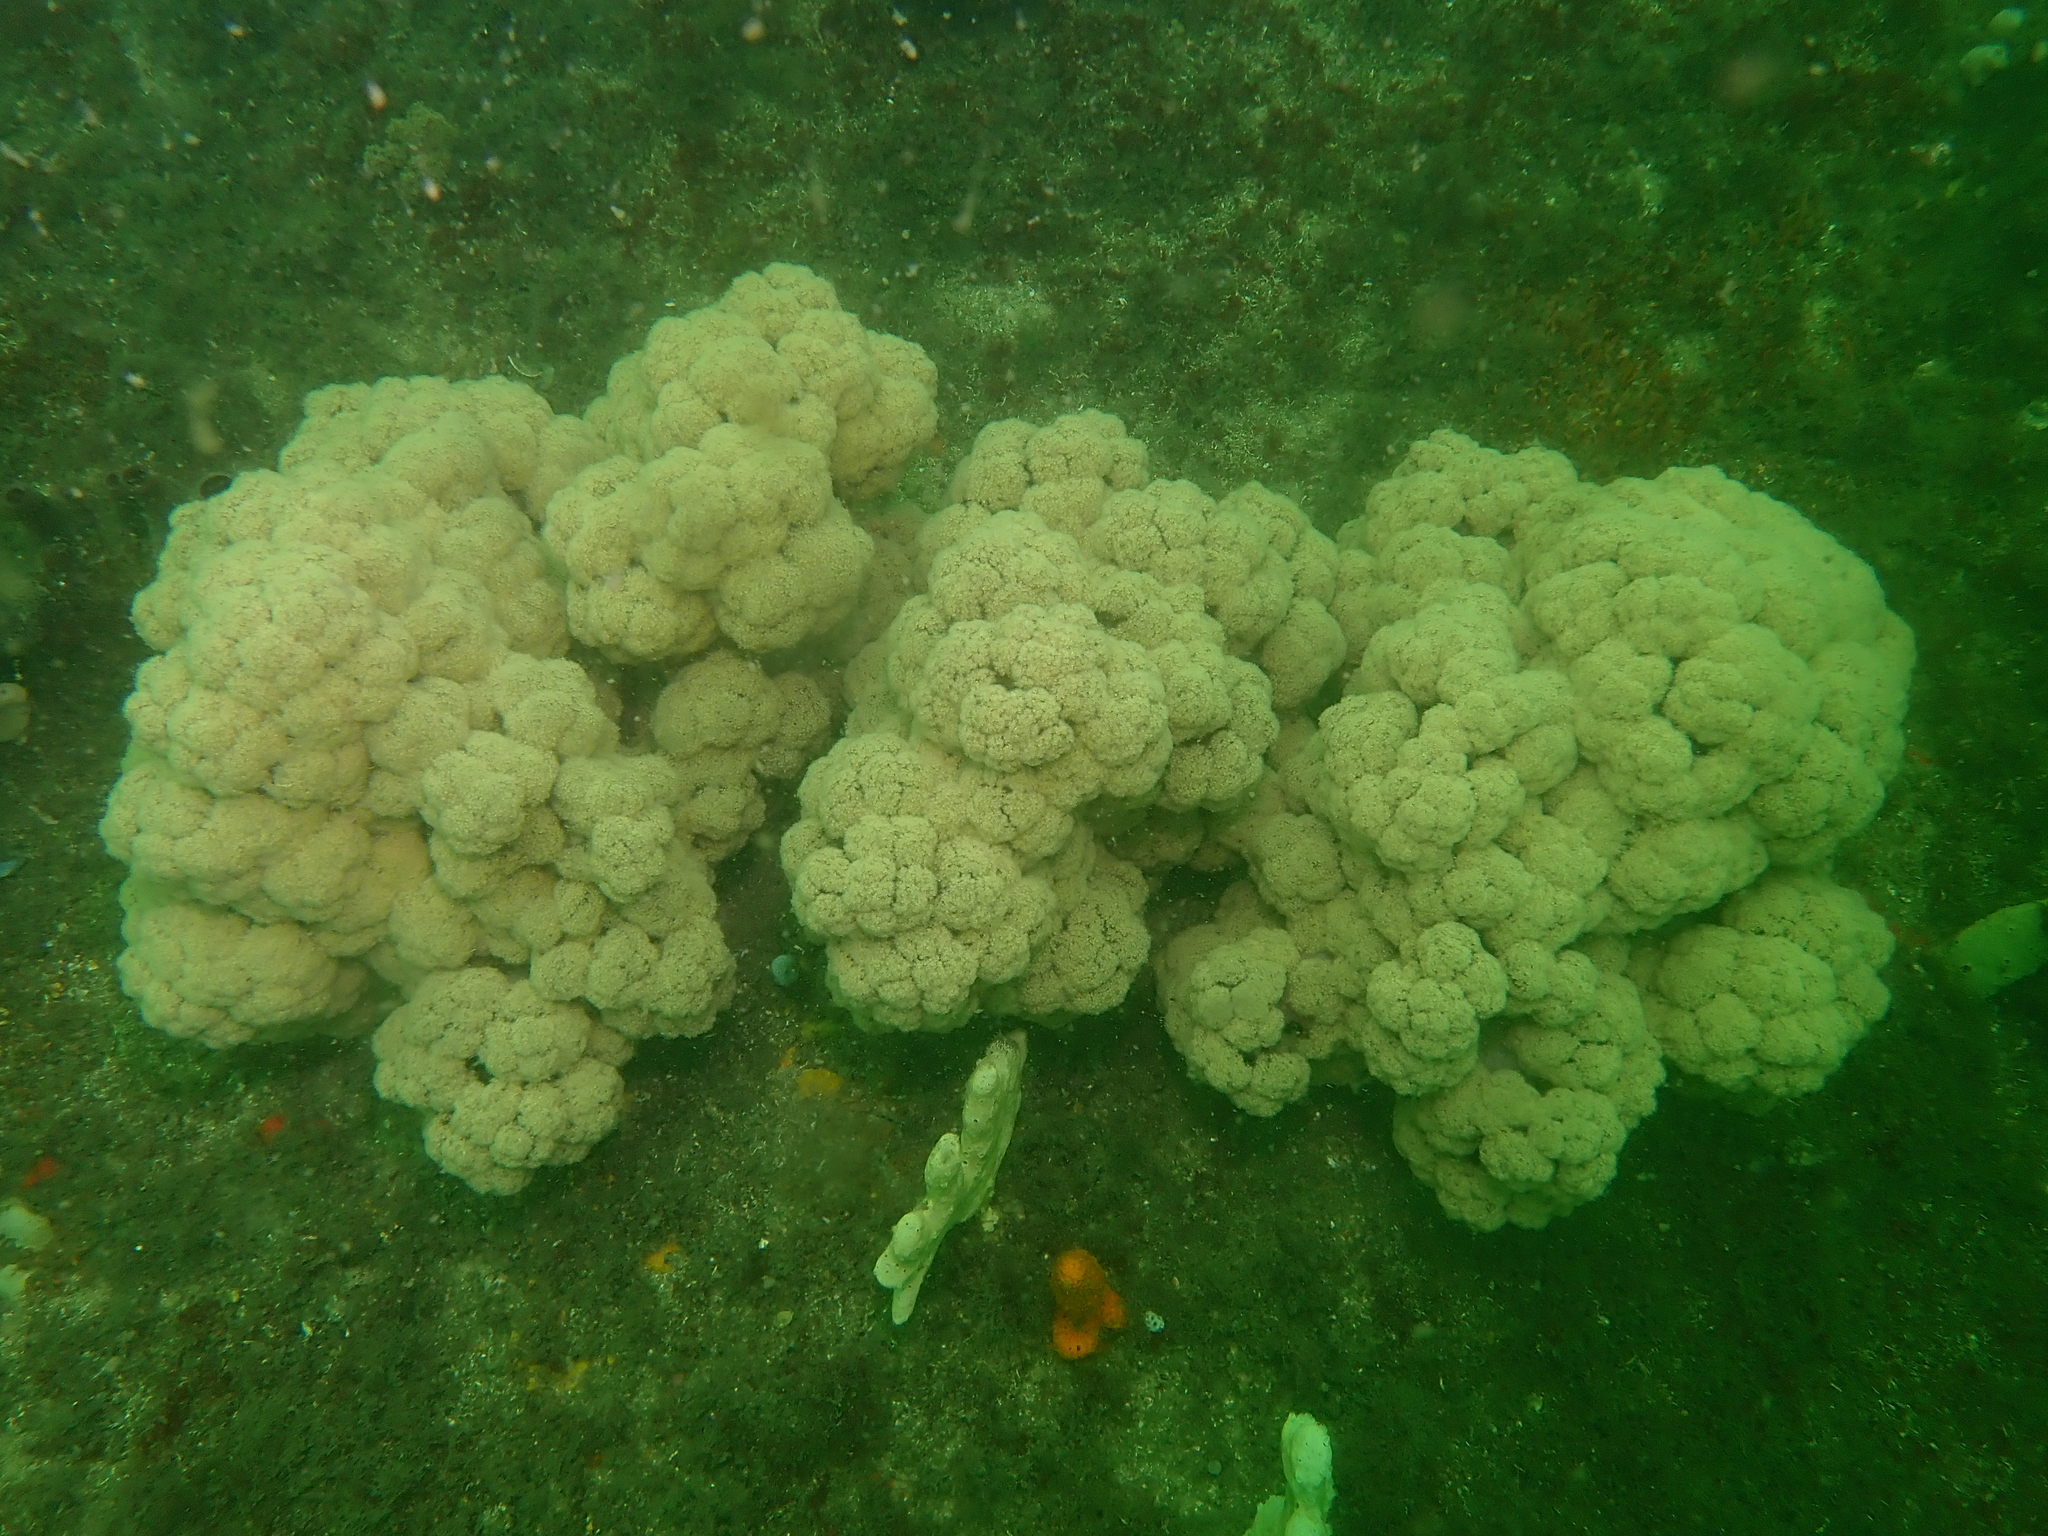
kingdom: Animalia
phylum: Cnidaria
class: Anthozoa
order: Malacalcyonacea
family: Nephtheidae
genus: Dendronephthya
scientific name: Dendronephthya australis
